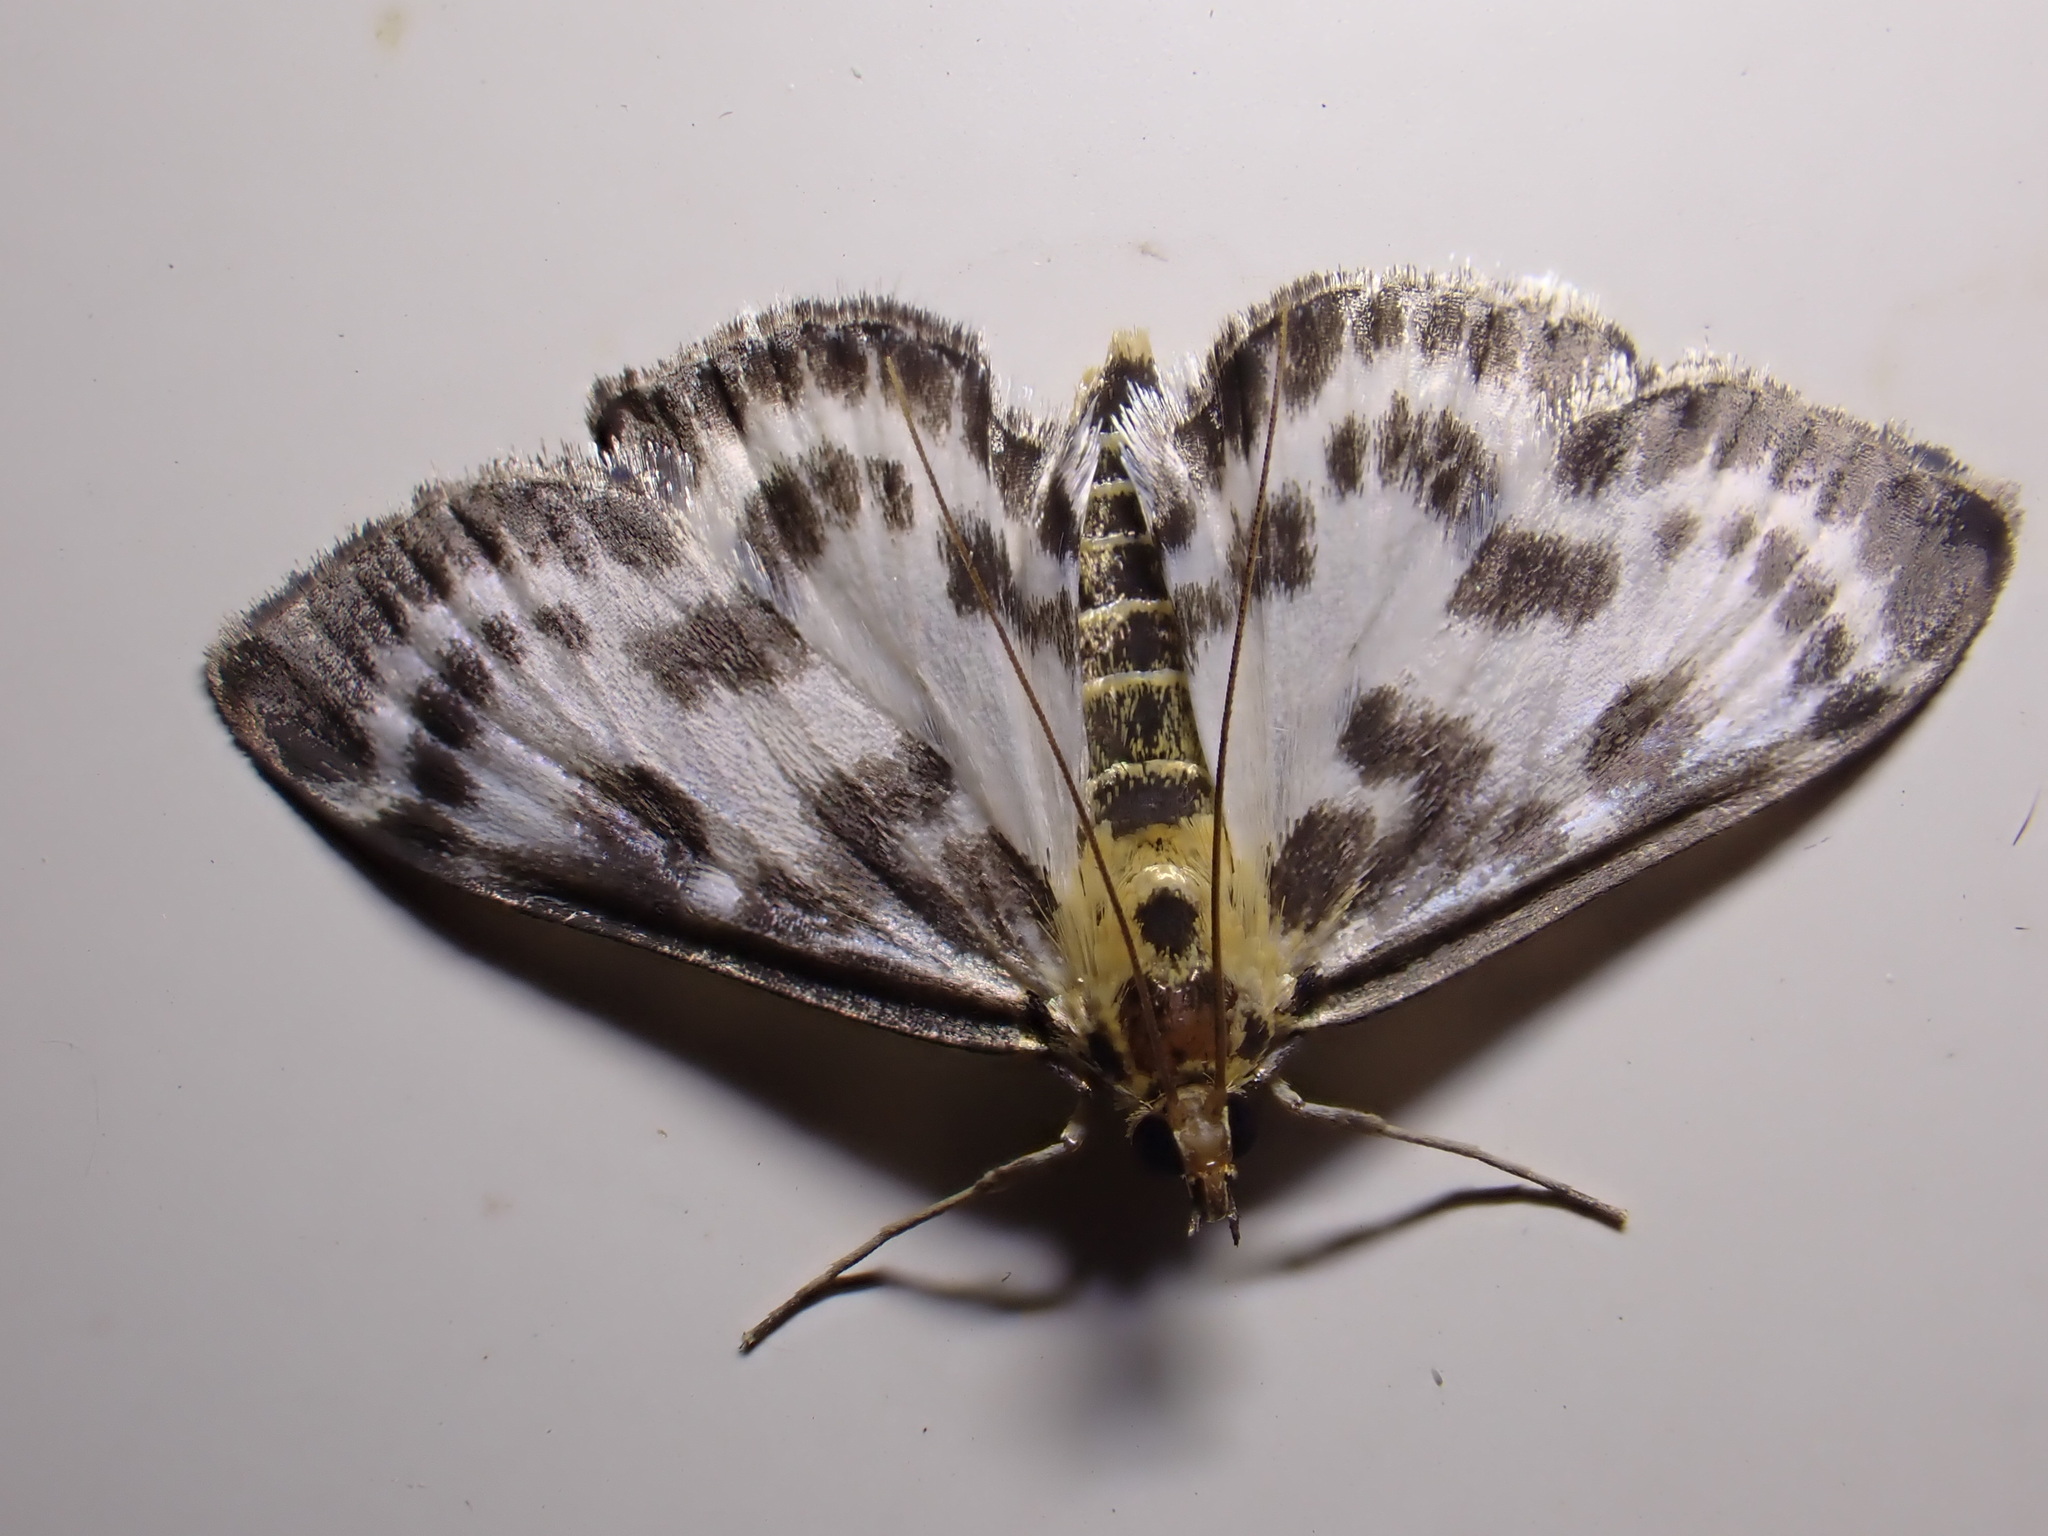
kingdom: Animalia
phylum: Arthropoda
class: Insecta
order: Lepidoptera
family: Crambidae
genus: Anania
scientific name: Anania hortulata
